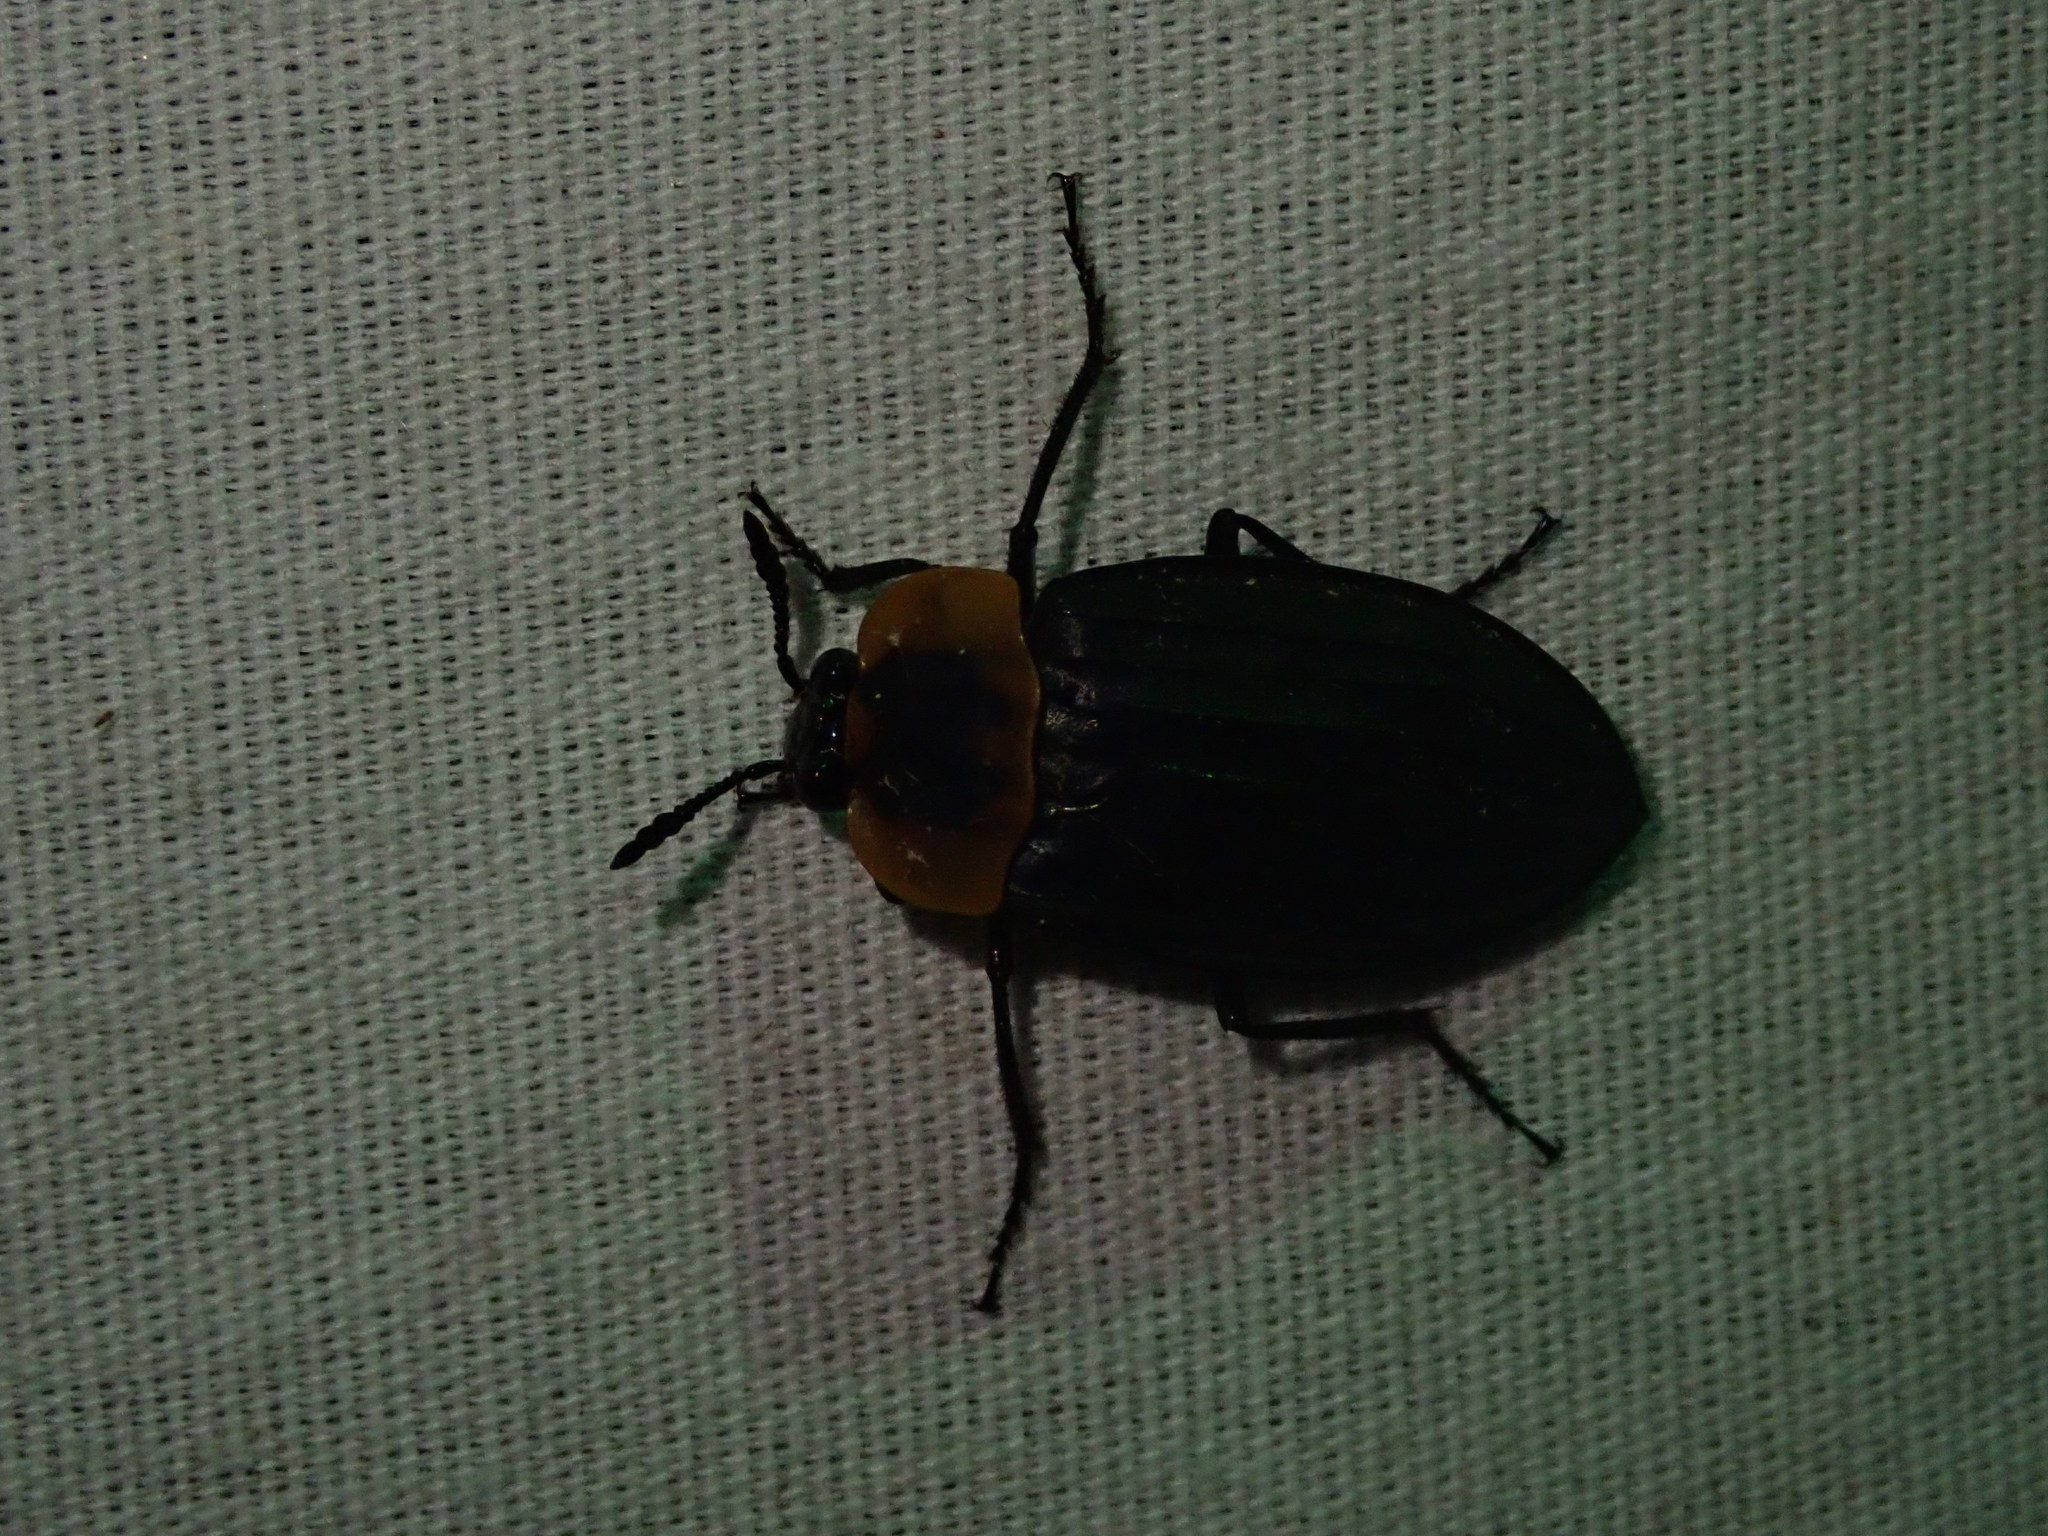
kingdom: Animalia
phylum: Arthropoda
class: Insecta
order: Coleoptera
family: Staphylinidae
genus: Oxelytrum
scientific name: Oxelytrum discicolle
